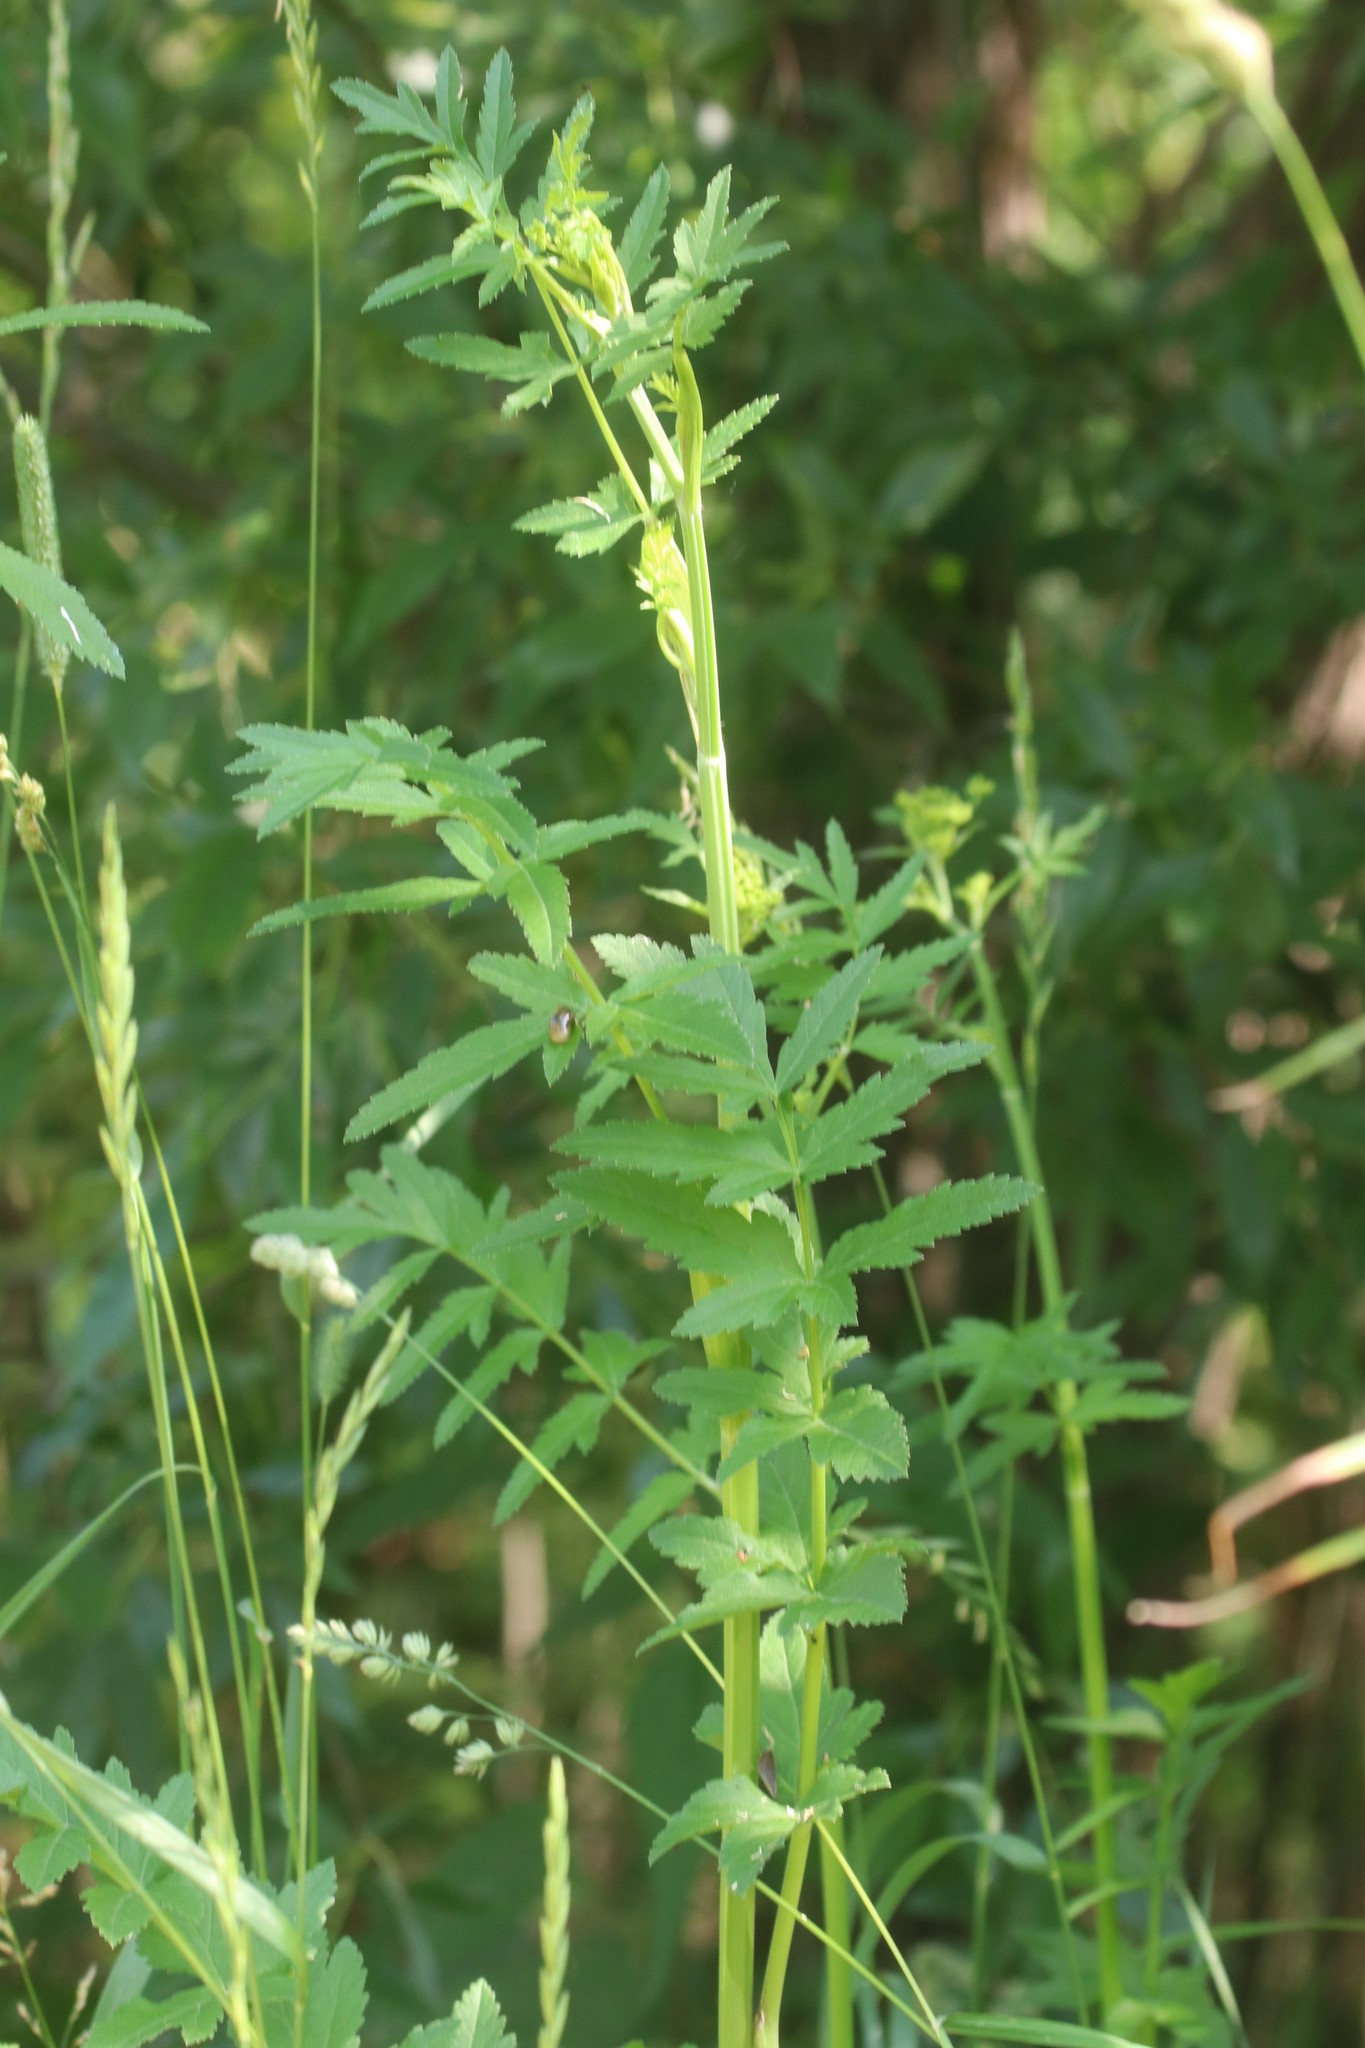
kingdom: Plantae
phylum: Tracheophyta
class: Magnoliopsida
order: Apiales
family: Apiaceae
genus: Pastinaca
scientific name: Pastinaca sativa
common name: Wild parsnip
